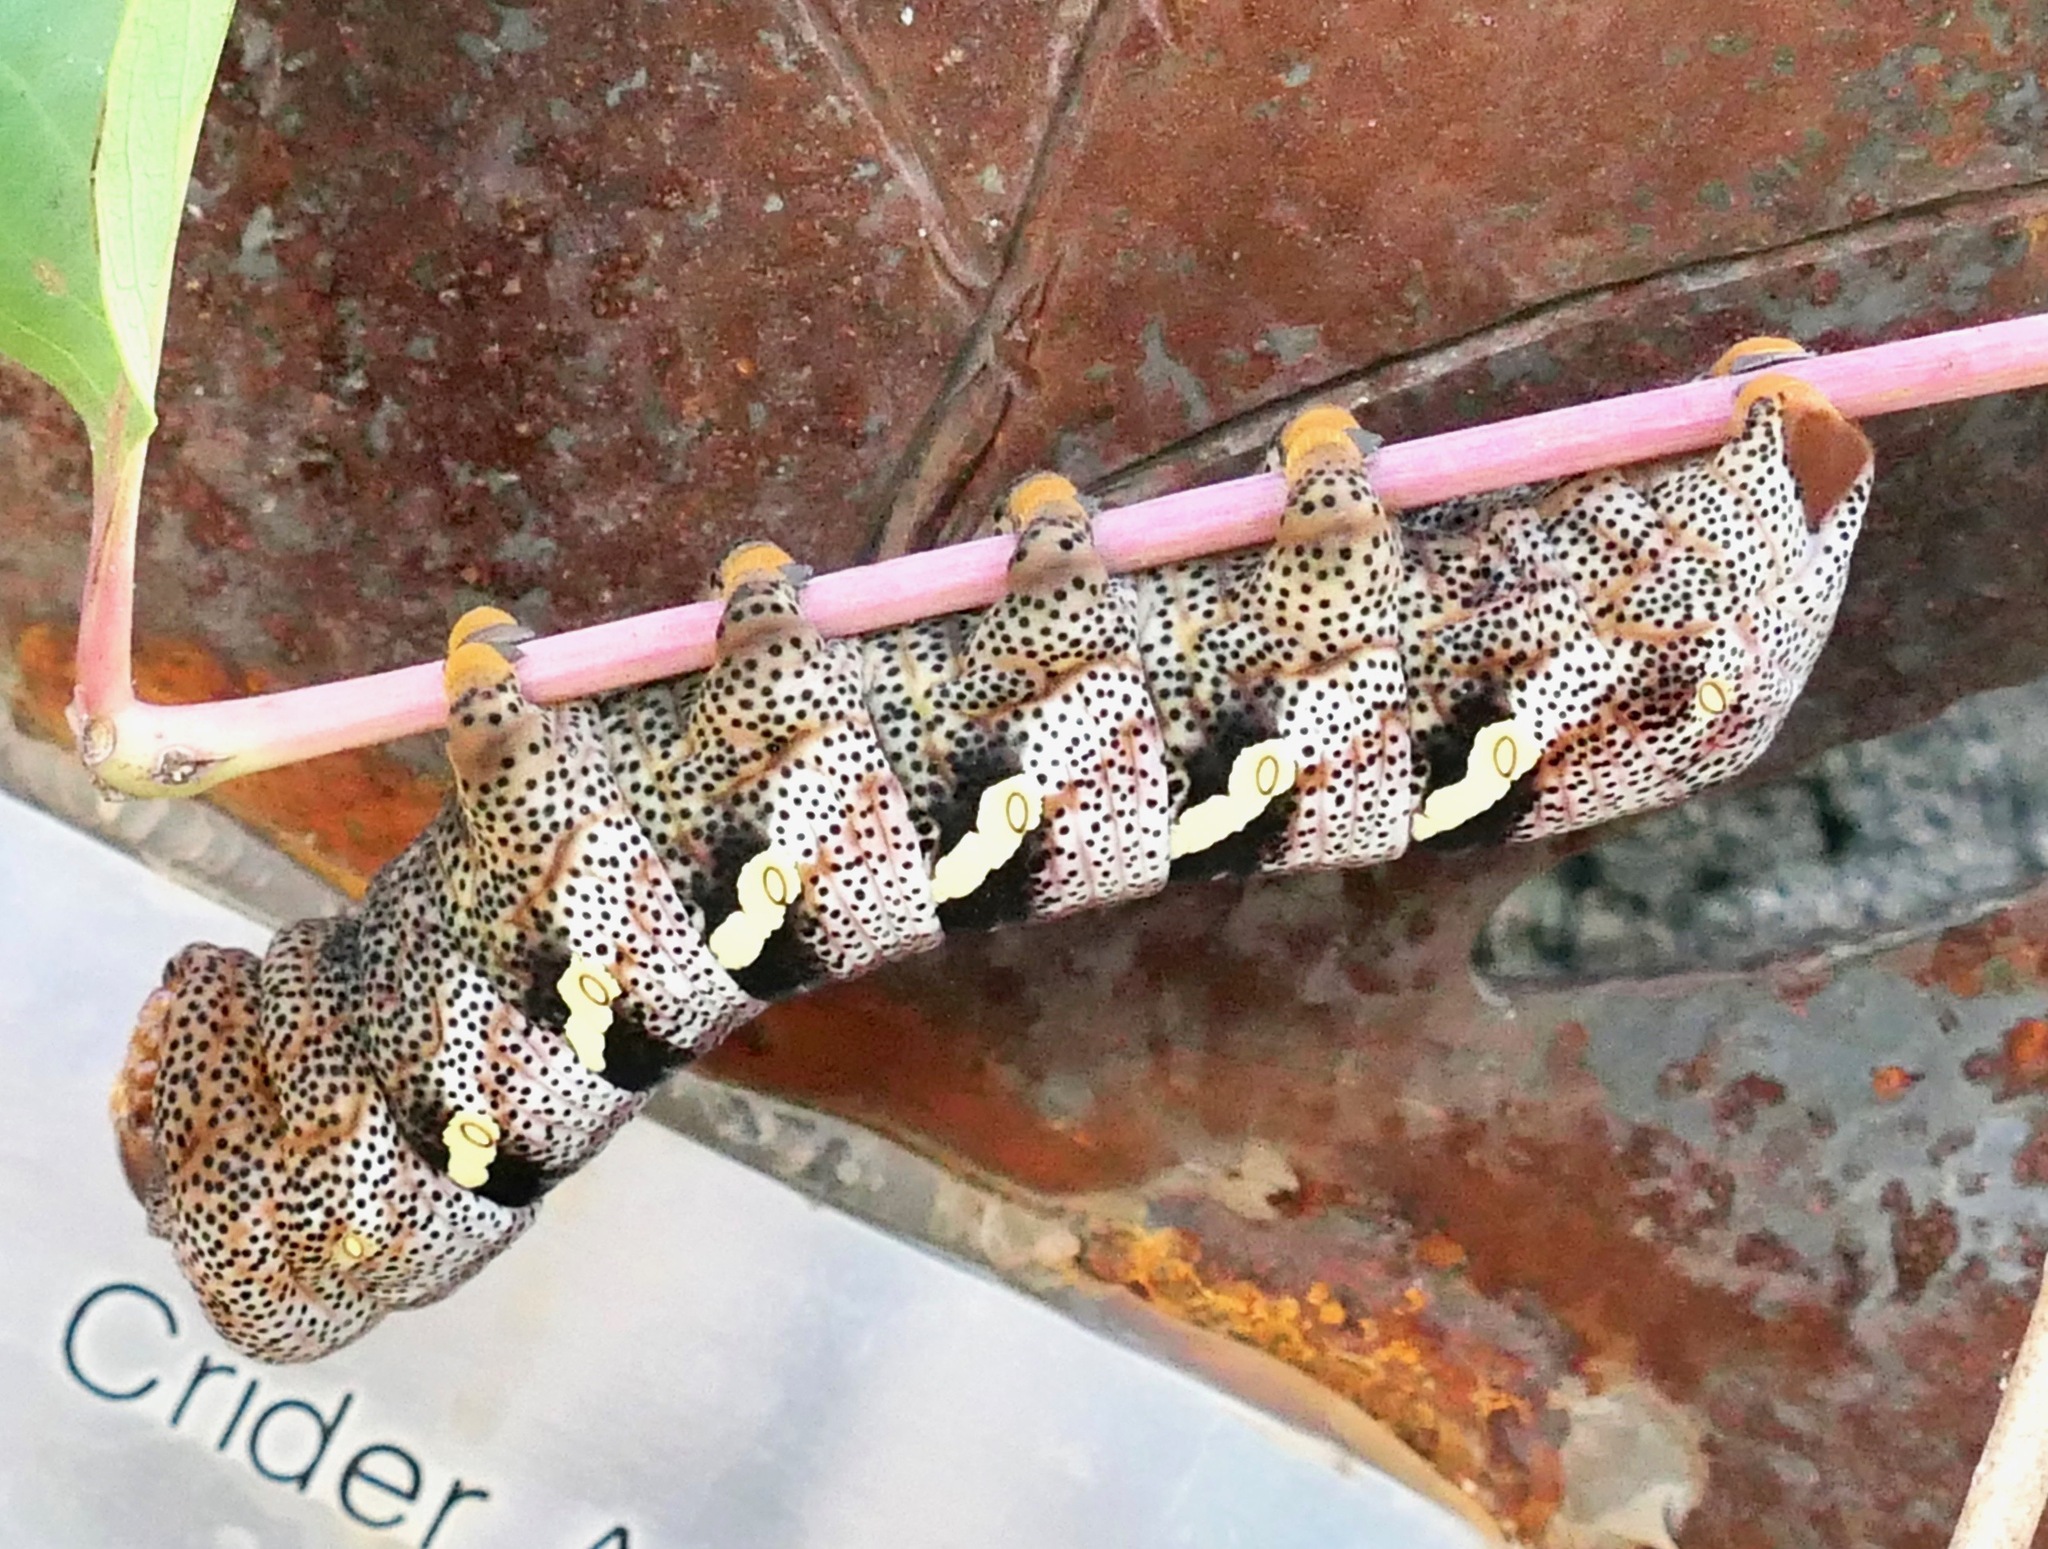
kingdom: Animalia
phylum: Arthropoda
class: Insecta
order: Lepidoptera
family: Sphingidae
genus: Eumorpha
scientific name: Eumorpha typhon
